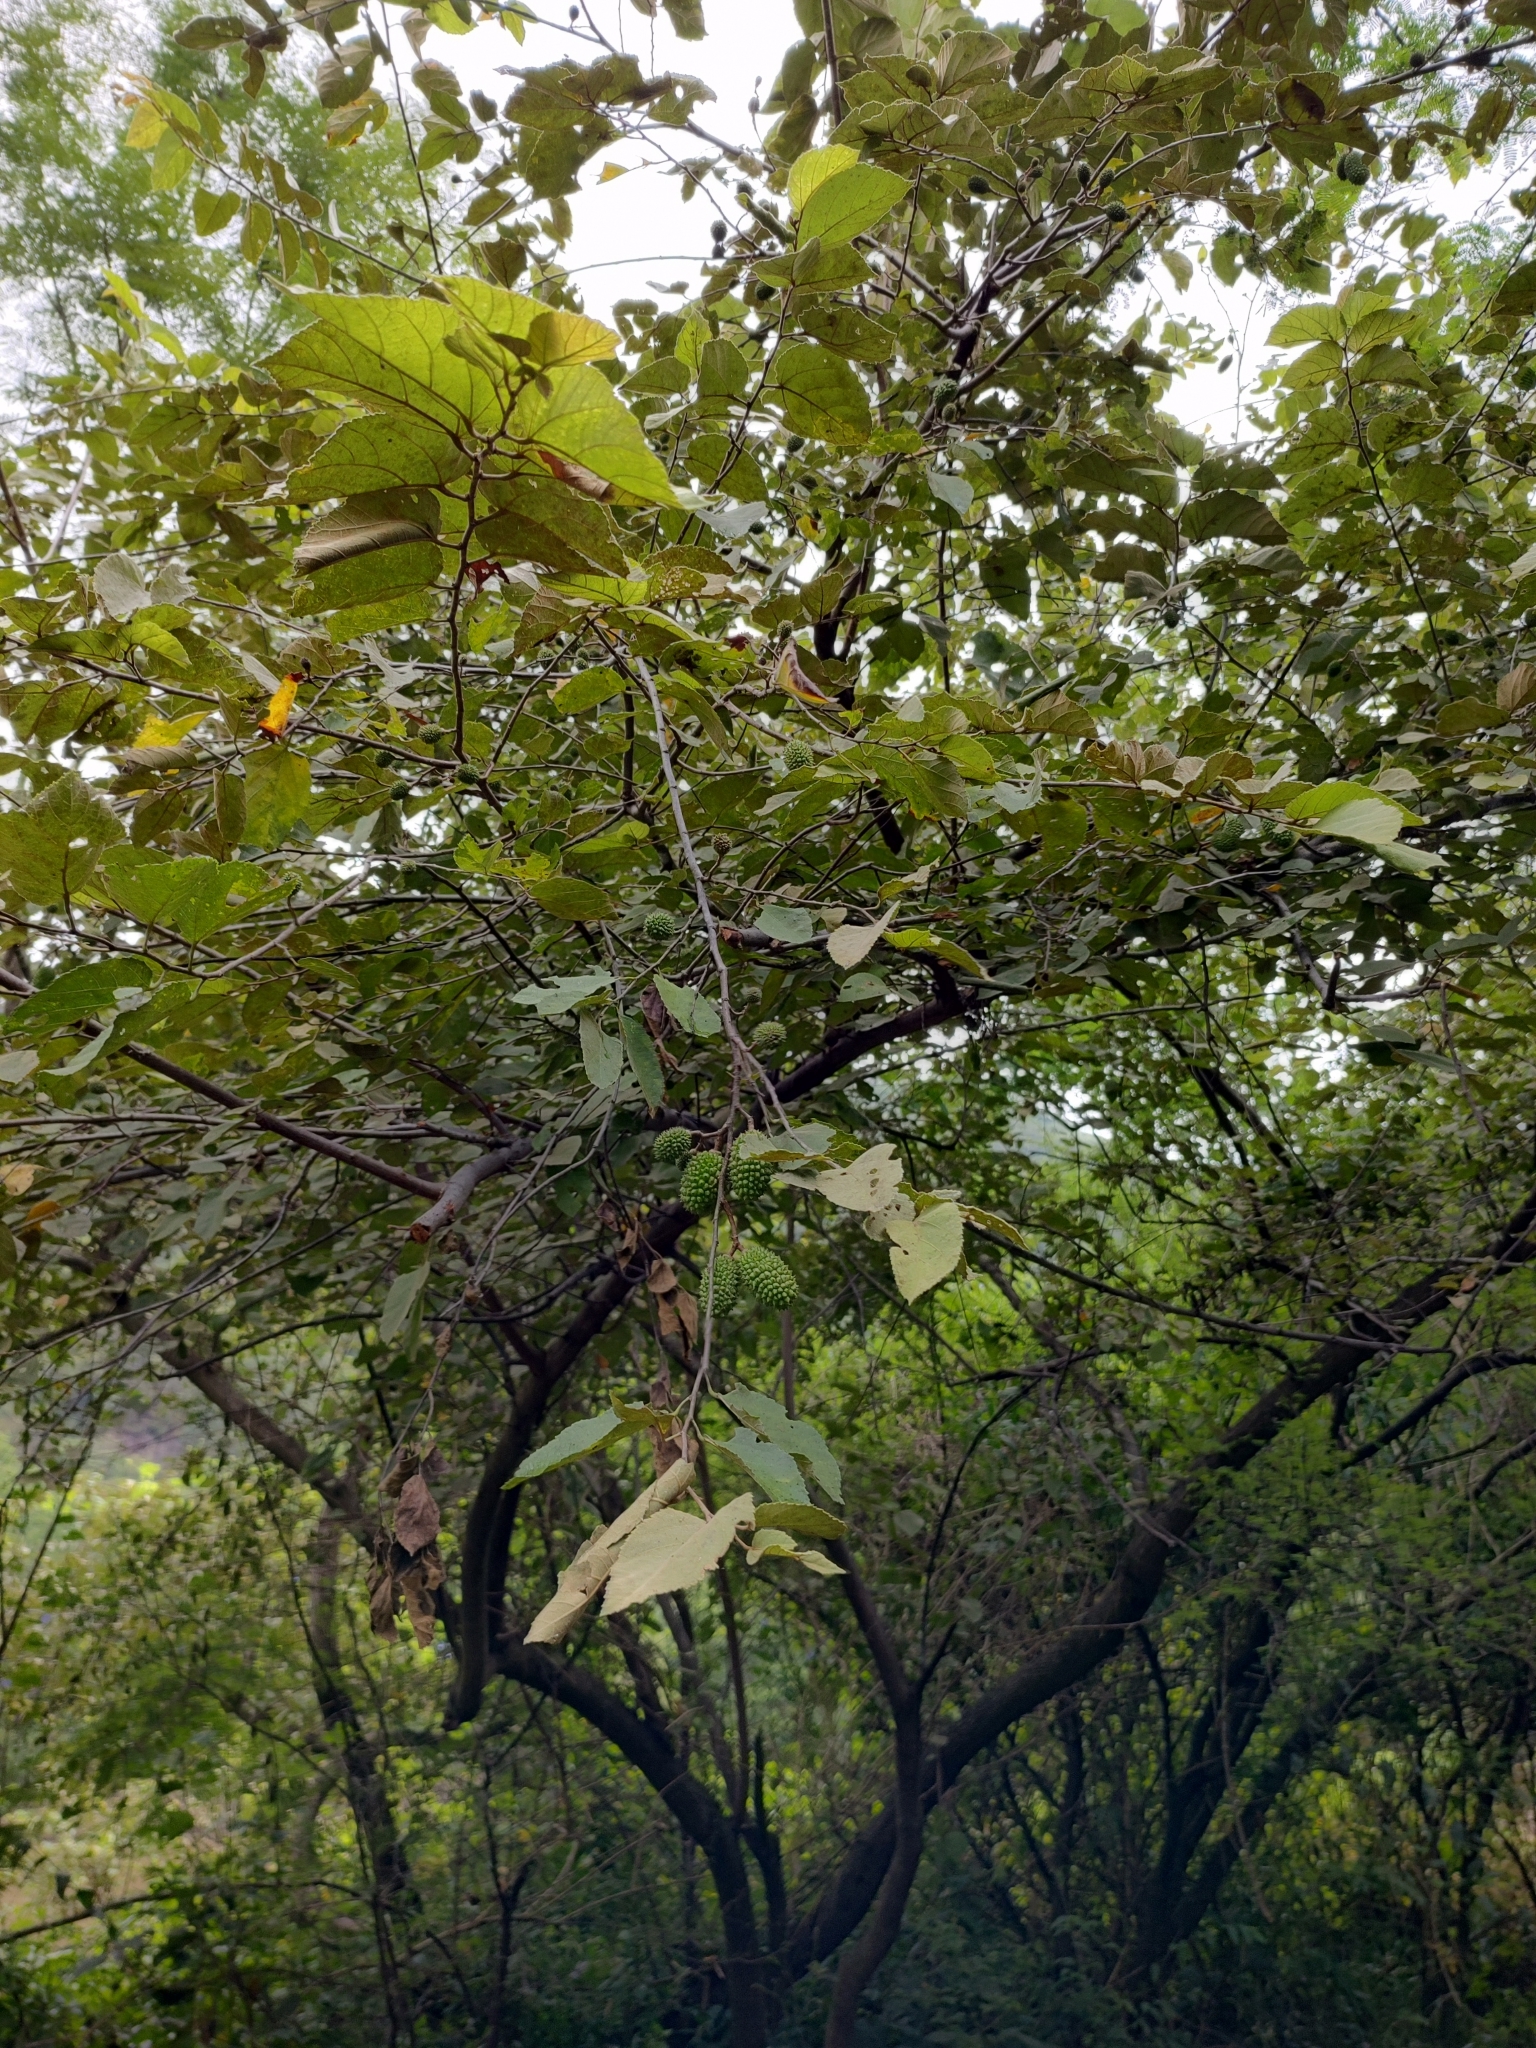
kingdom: Plantae
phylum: Tracheophyta
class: Magnoliopsida
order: Malvales
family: Malvaceae
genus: Guazuma
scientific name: Guazuma ulmifolia
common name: Bastard-cedar
